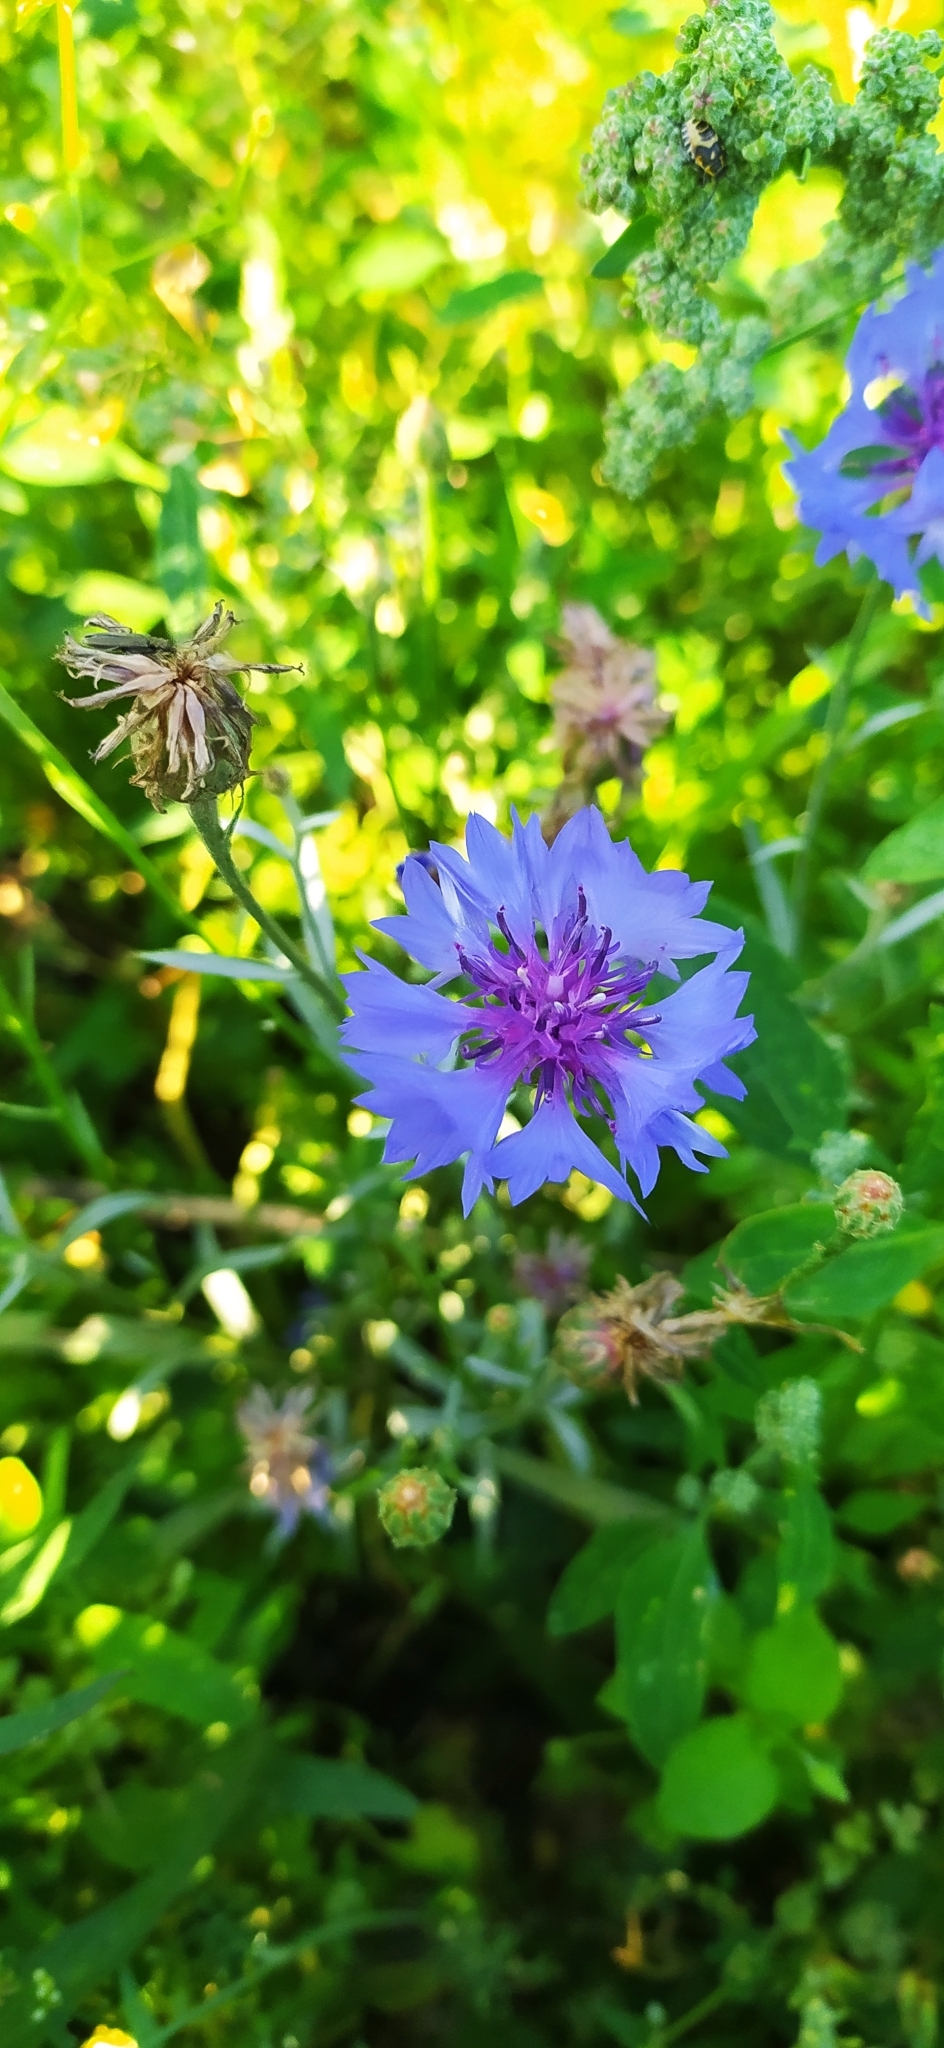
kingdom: Plantae
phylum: Tracheophyta
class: Magnoliopsida
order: Asterales
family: Asteraceae
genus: Centaurea
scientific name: Centaurea cyanus
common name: Cornflower
